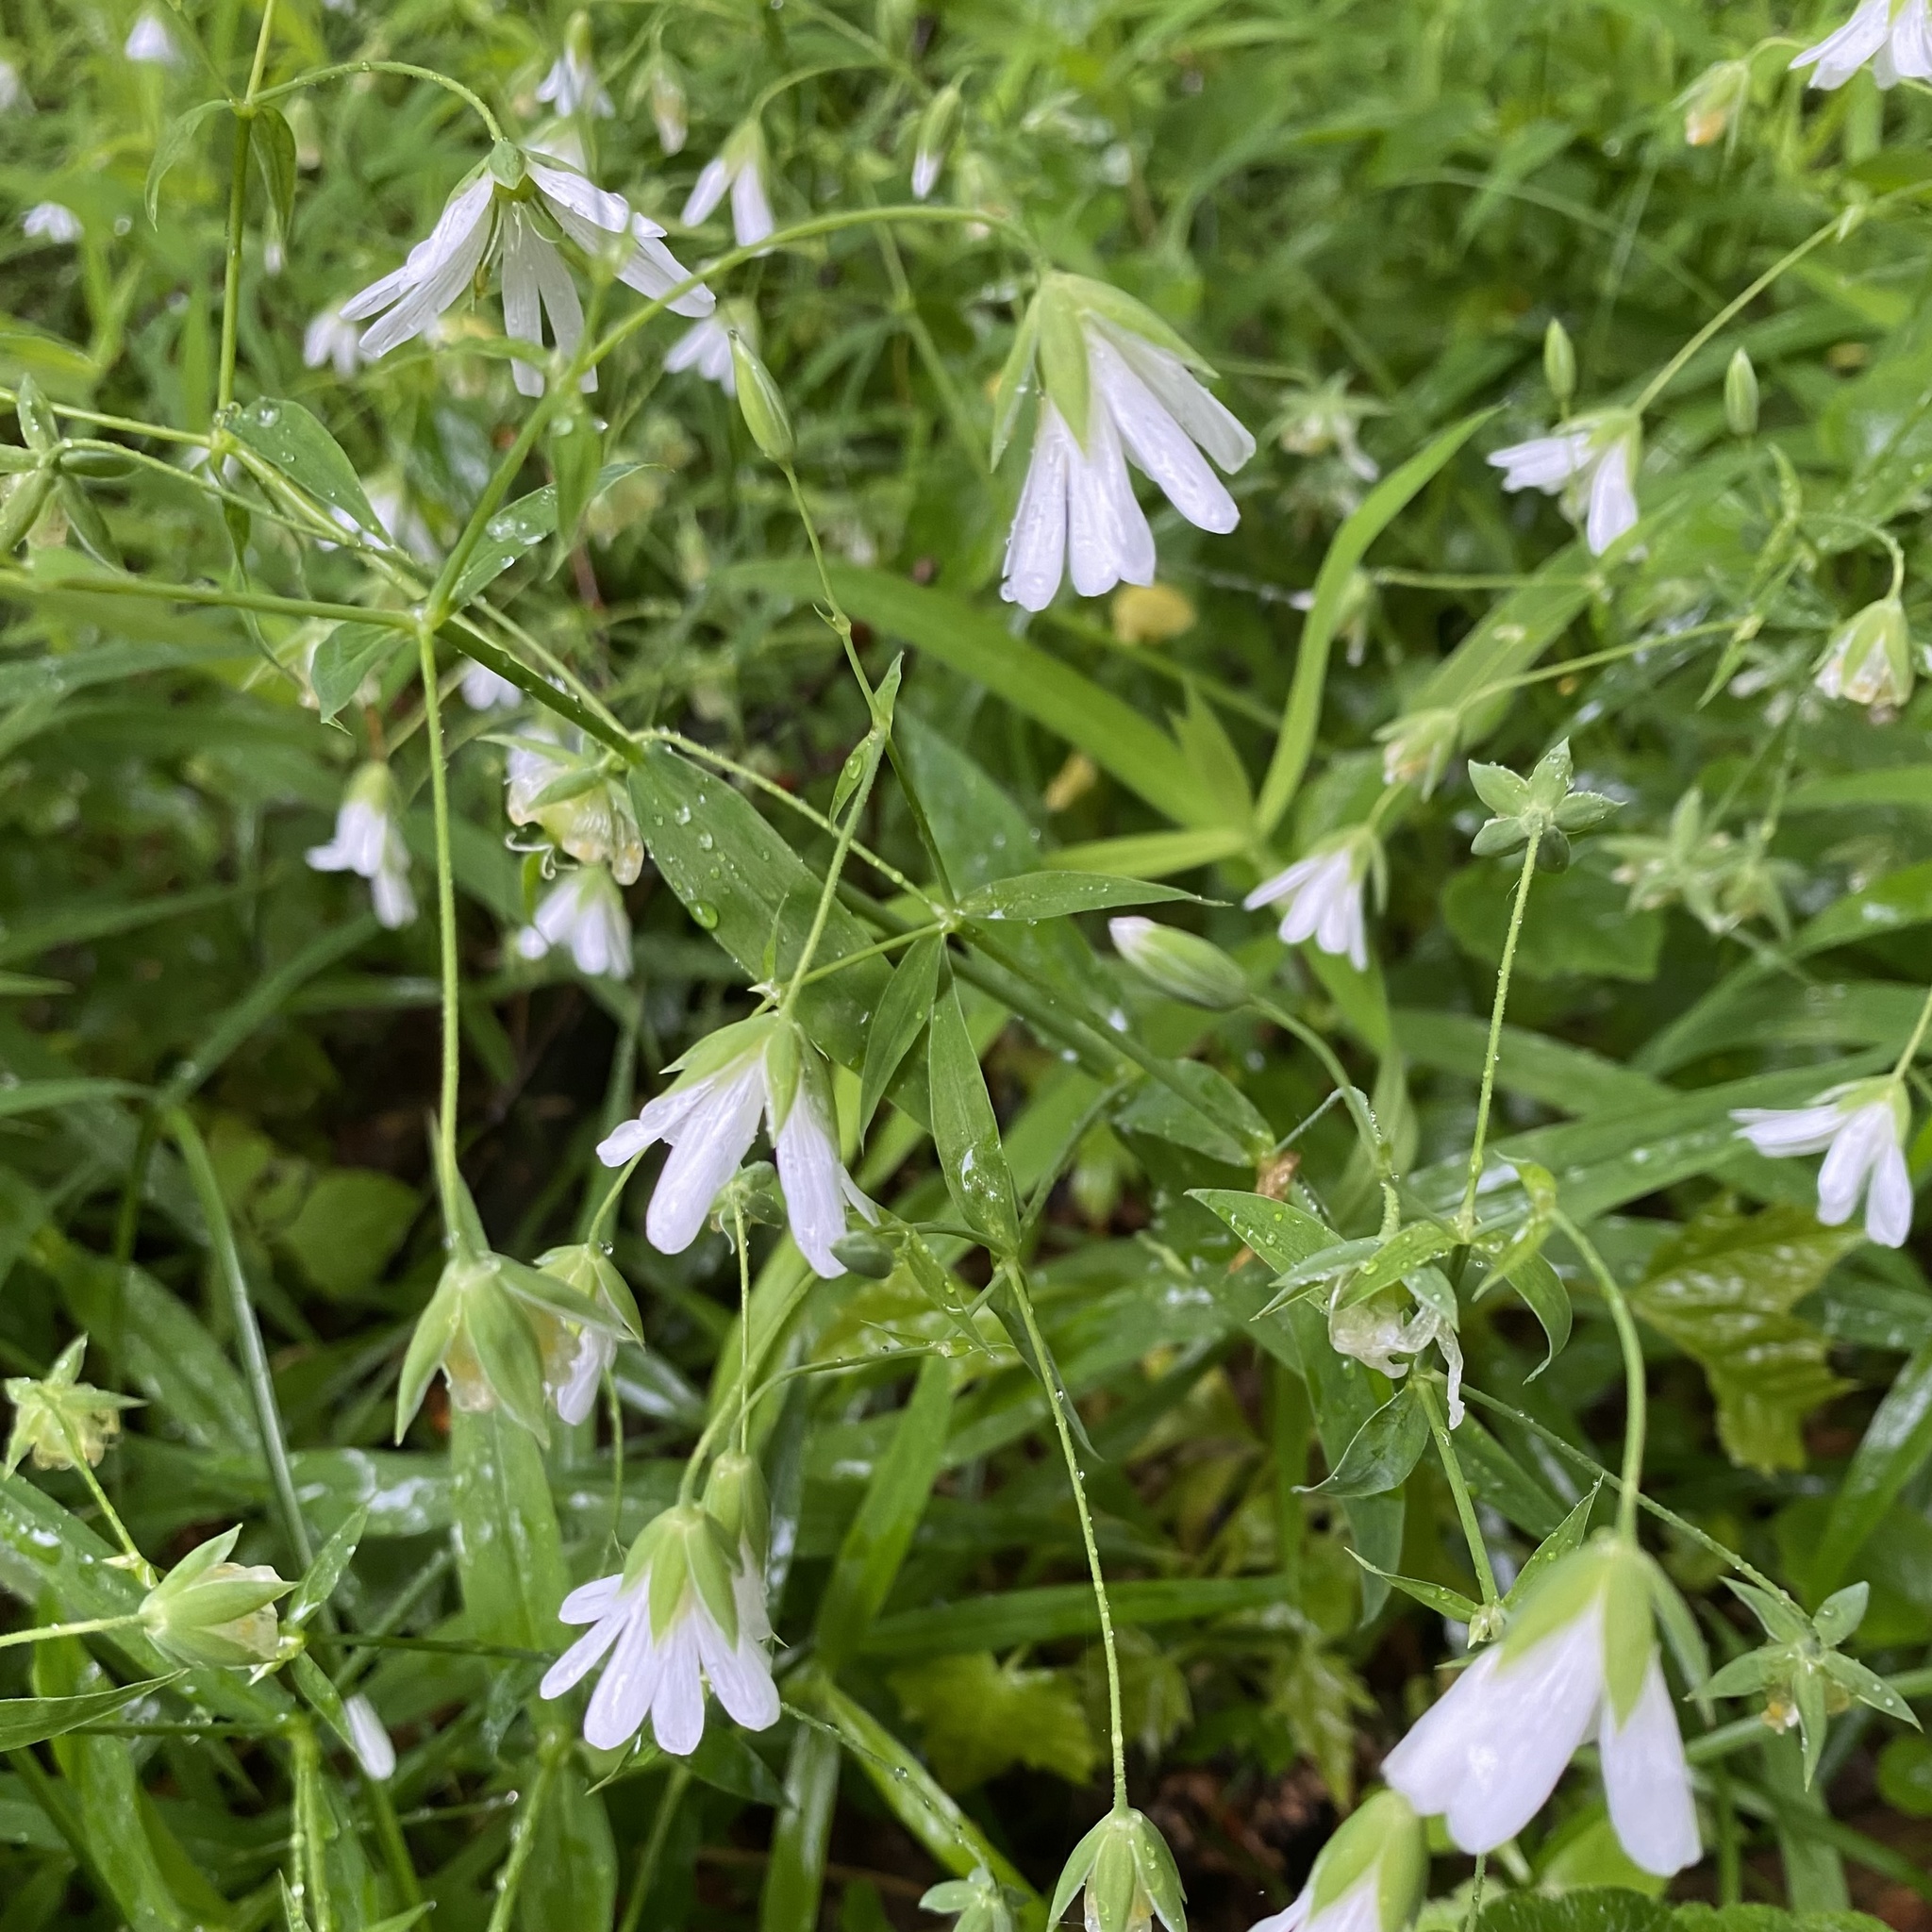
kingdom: Plantae
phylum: Tracheophyta
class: Magnoliopsida
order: Caryophyllales
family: Caryophyllaceae
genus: Rabelera
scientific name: Rabelera holostea
